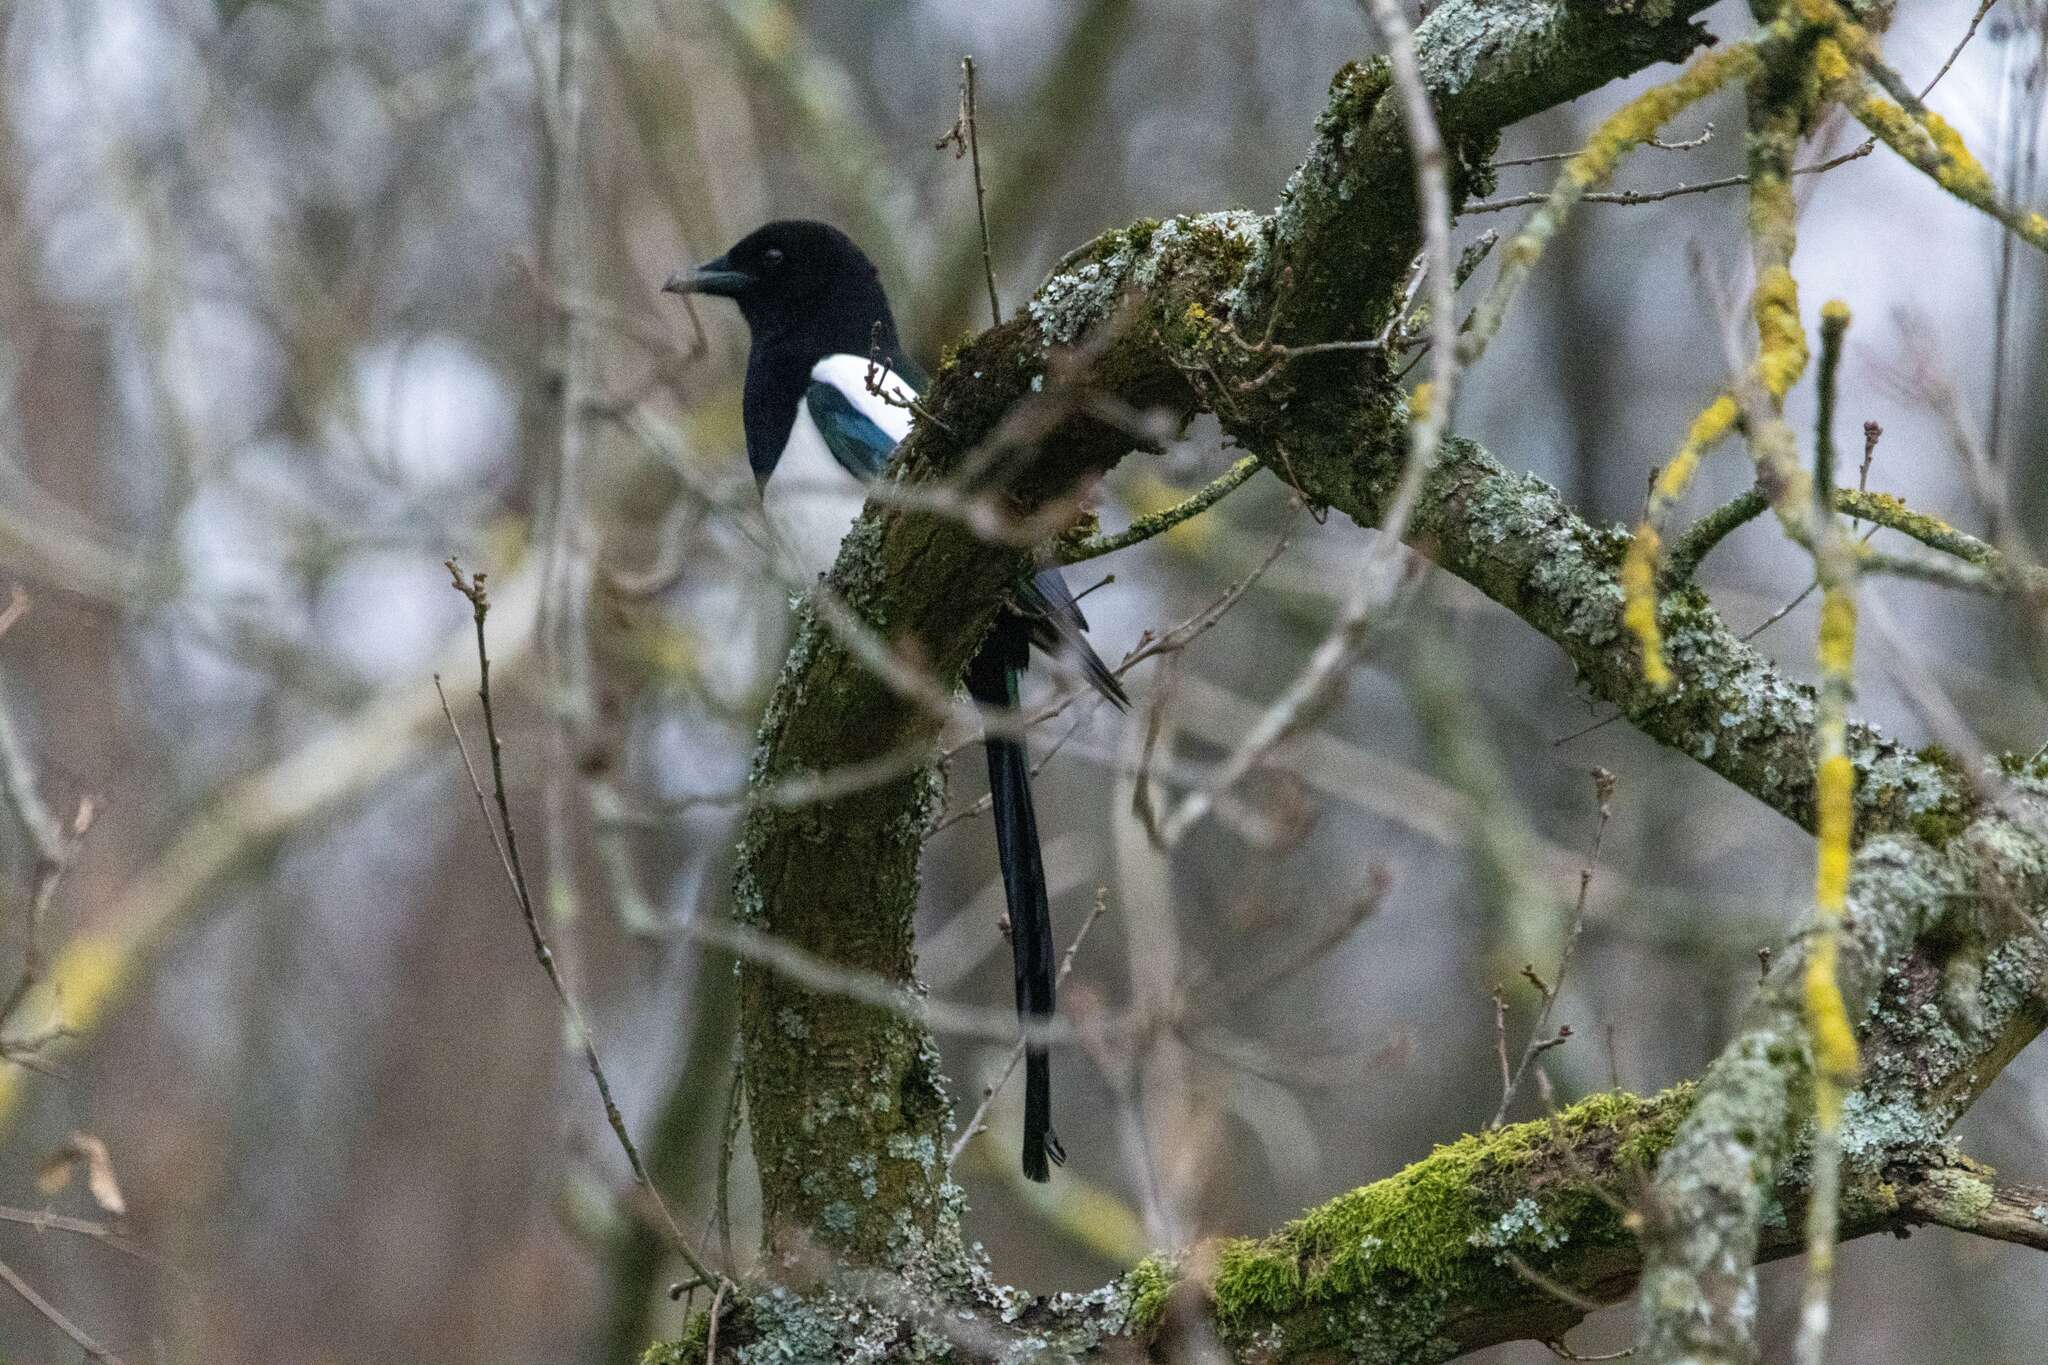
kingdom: Animalia
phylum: Chordata
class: Aves
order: Passeriformes
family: Corvidae
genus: Pica
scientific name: Pica pica
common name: Eurasian magpie
